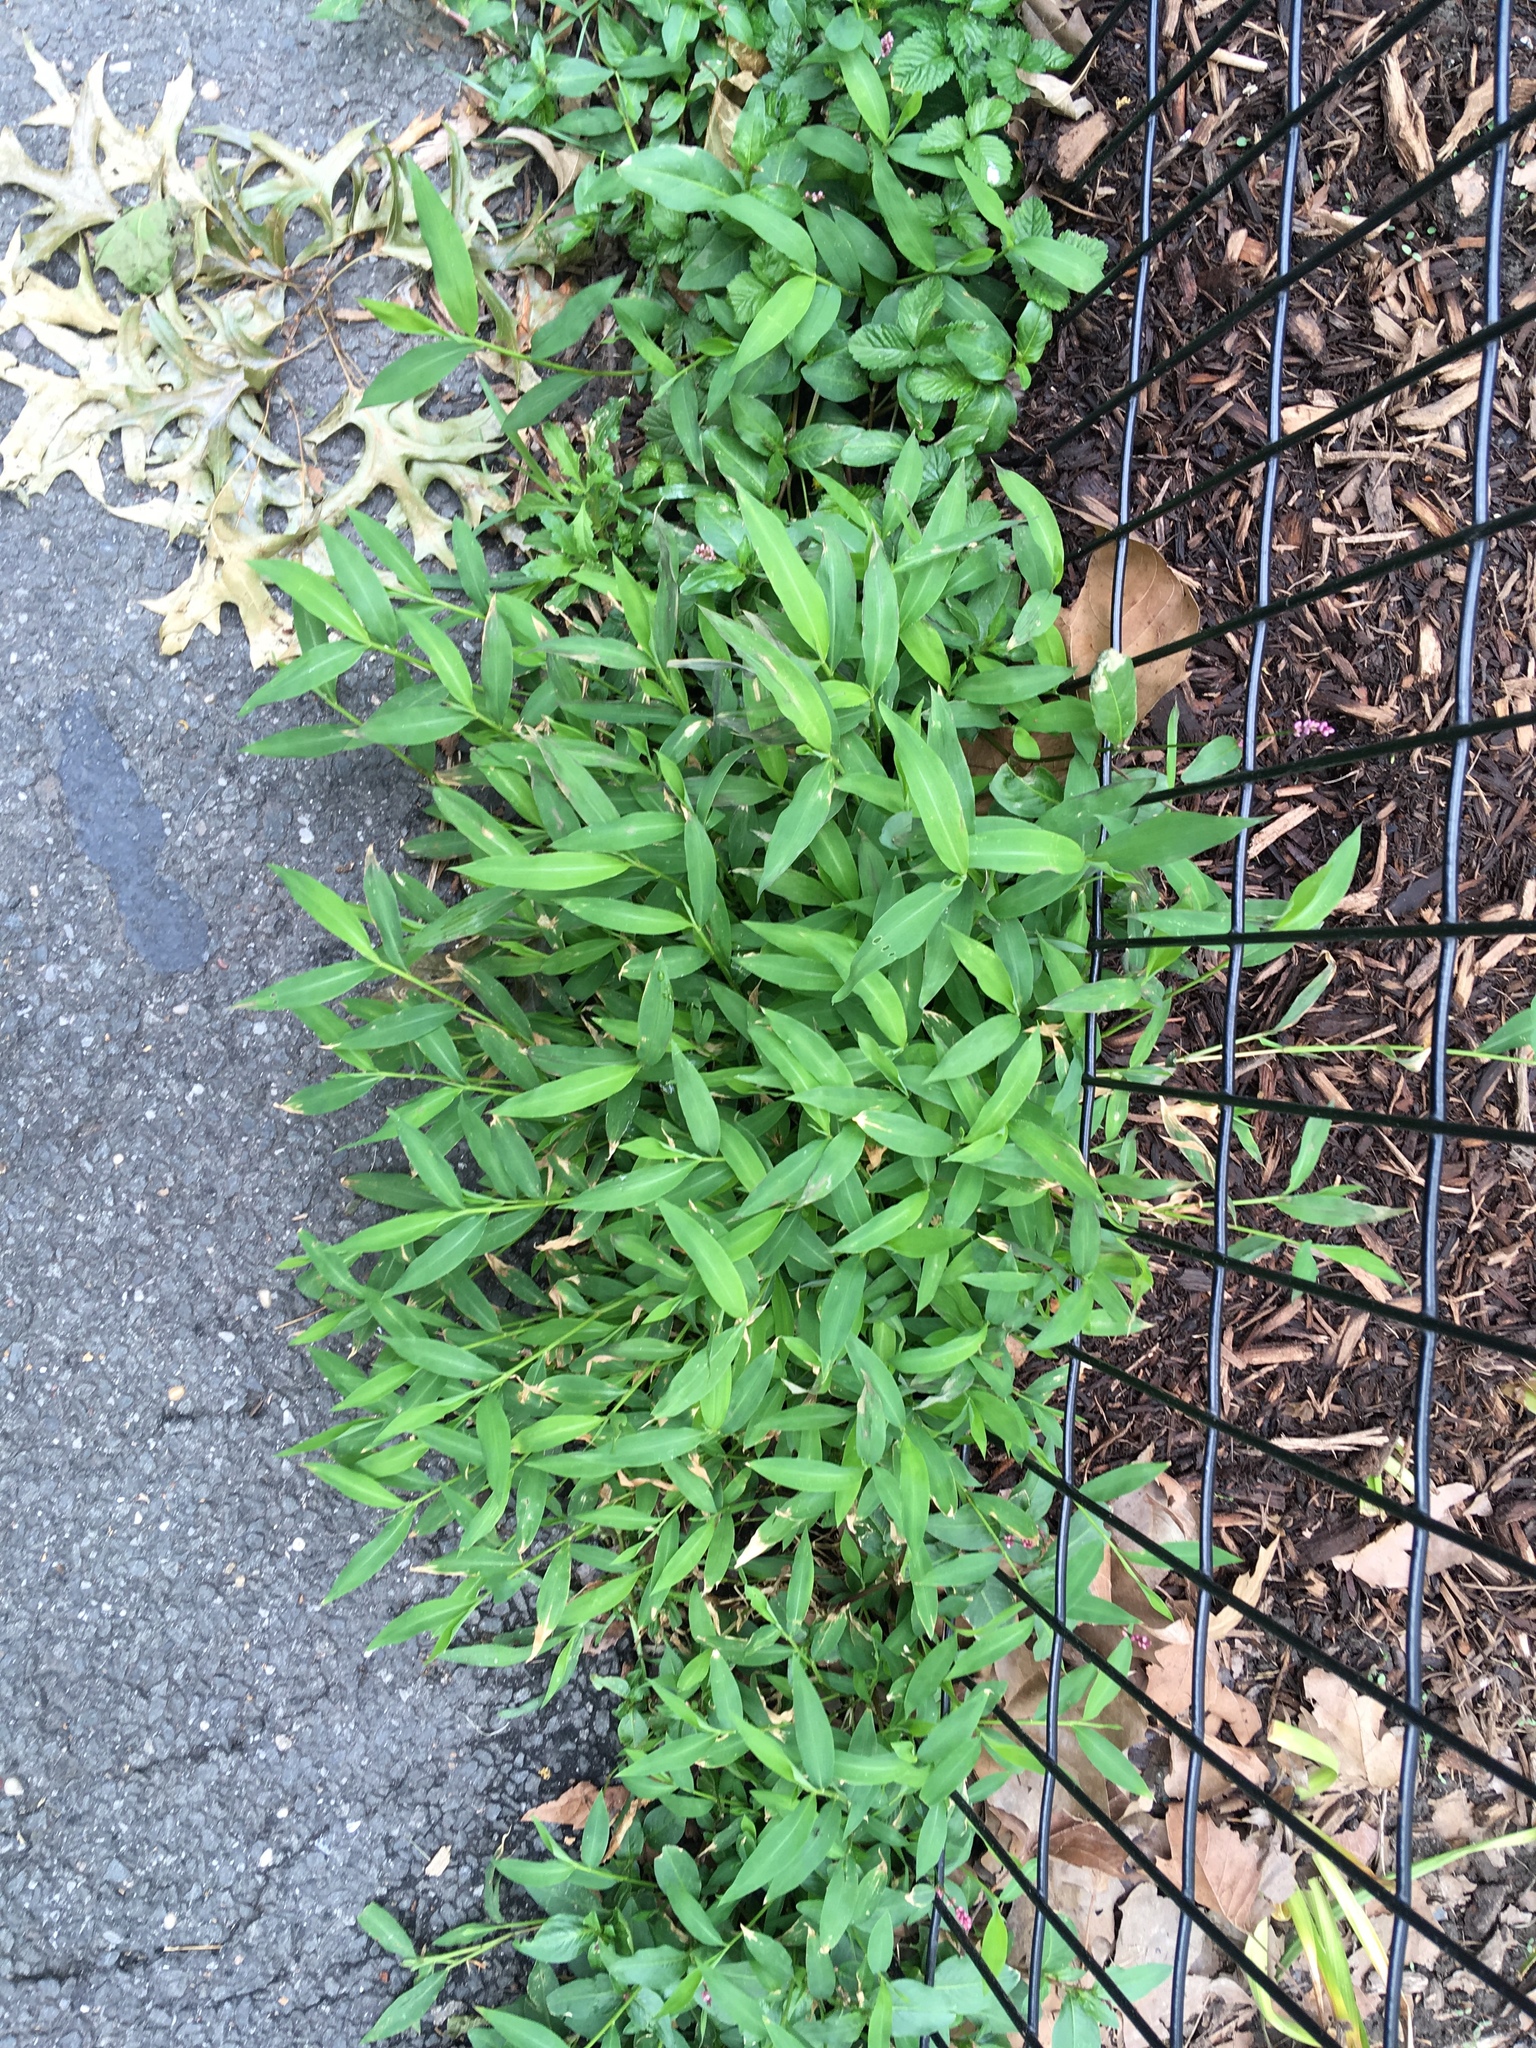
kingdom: Plantae
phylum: Tracheophyta
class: Liliopsida
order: Poales
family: Poaceae
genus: Microstegium
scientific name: Microstegium vimineum
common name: Japanese stiltgrass
